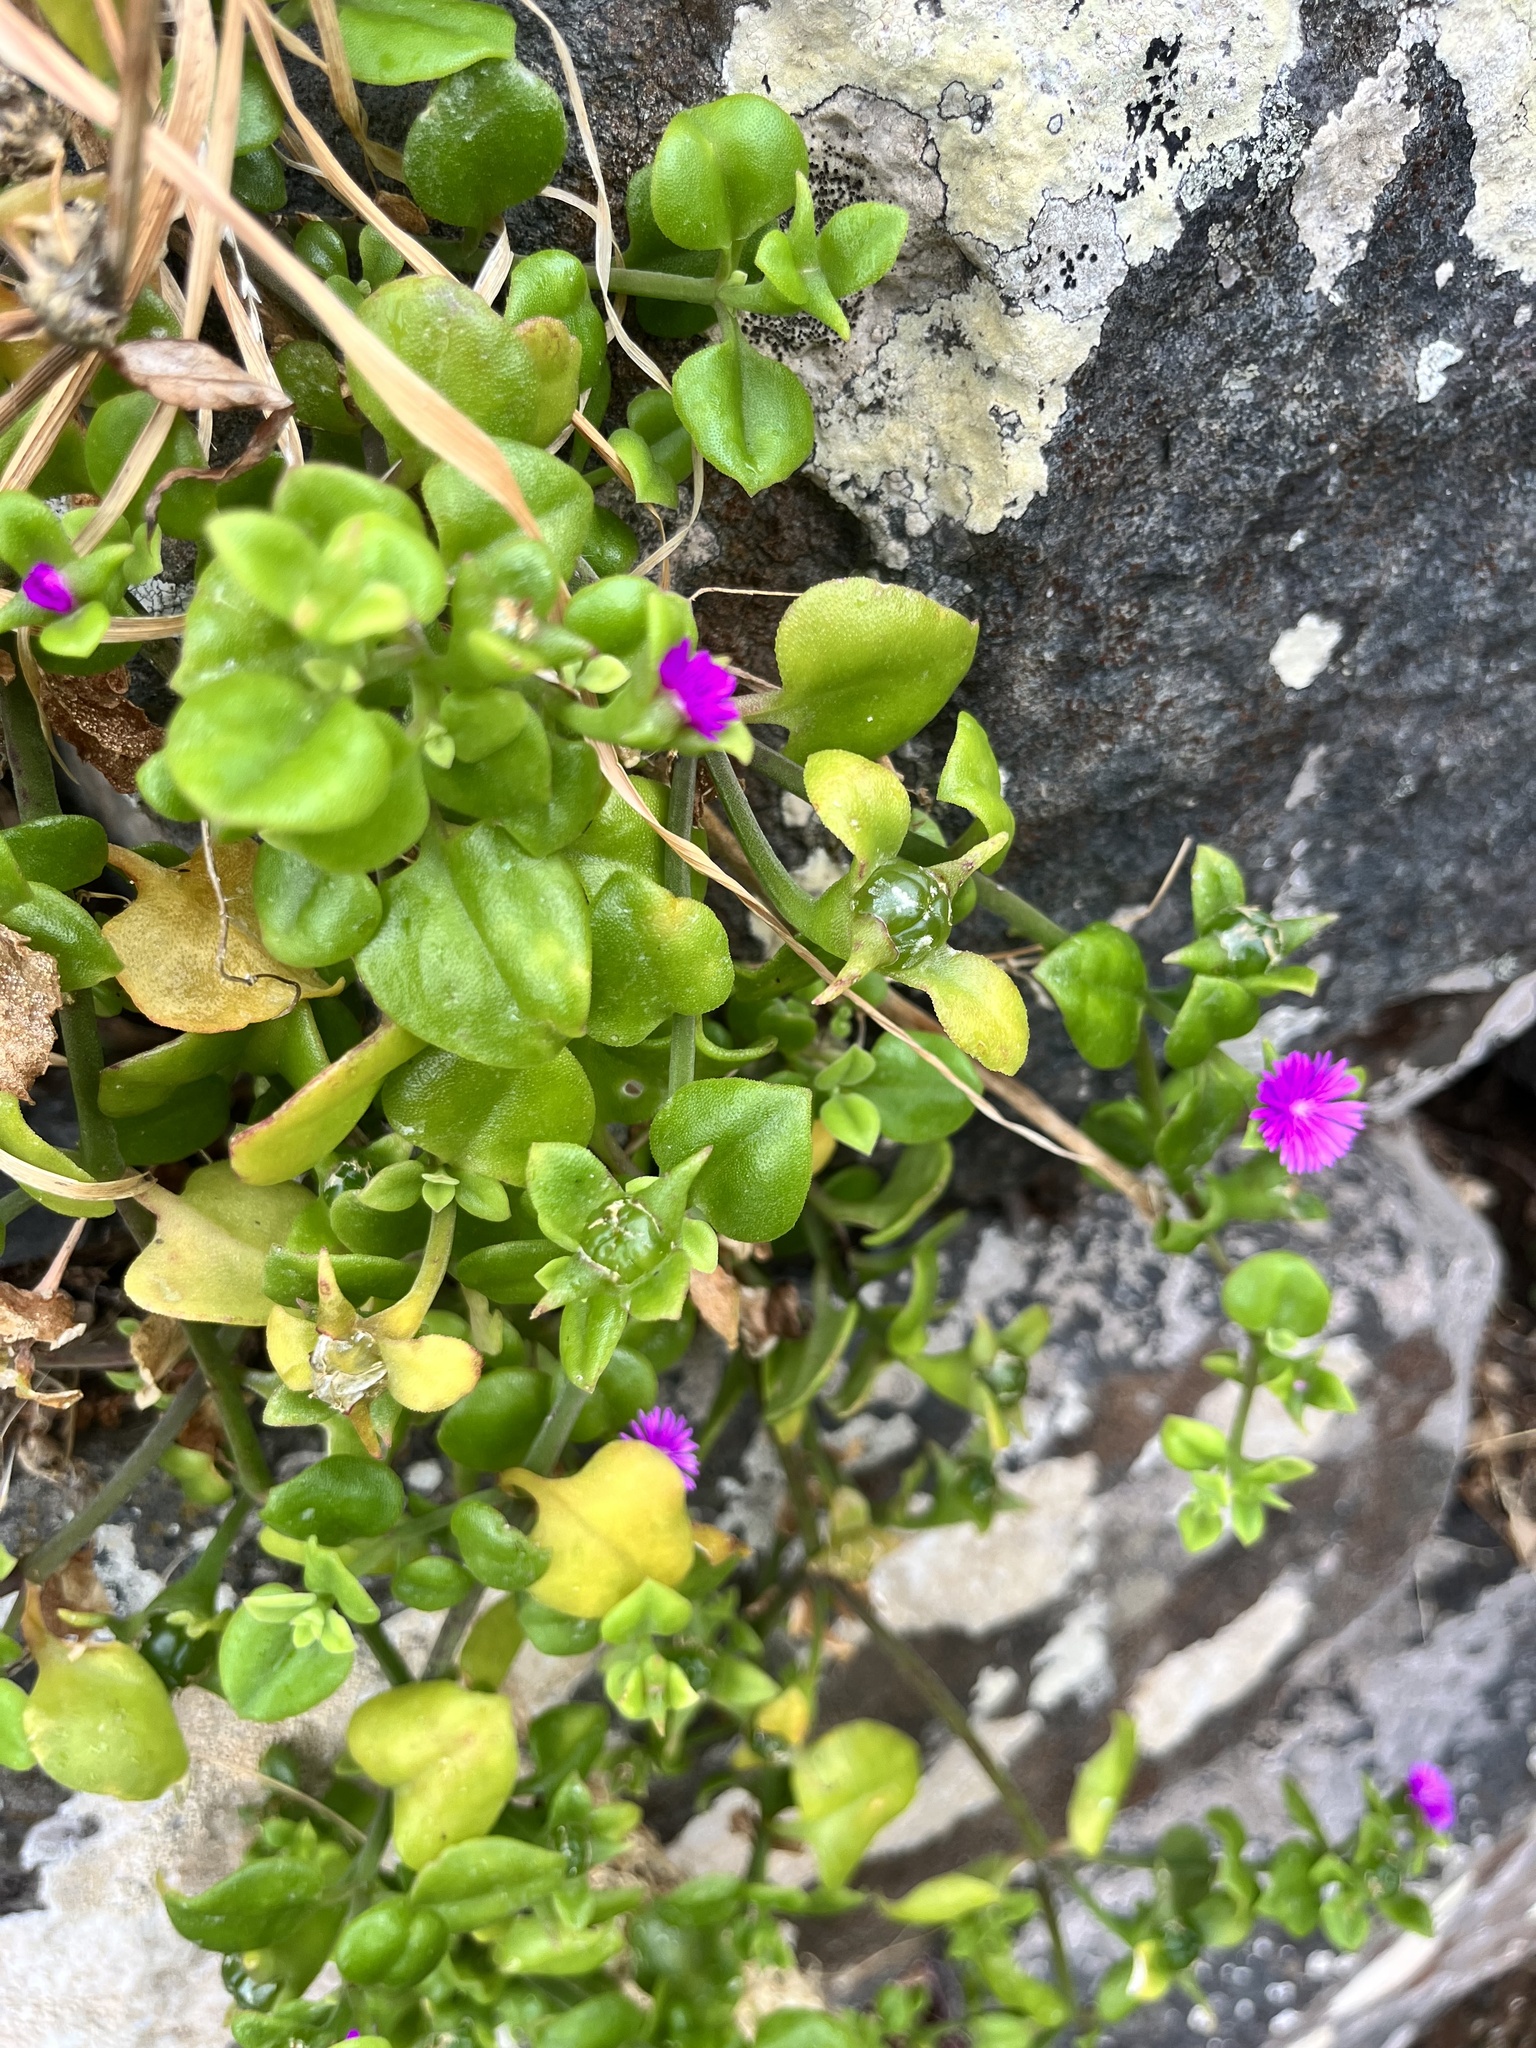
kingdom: Plantae
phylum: Tracheophyta
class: Magnoliopsida
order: Caryophyllales
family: Aizoaceae
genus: Mesembryanthemum
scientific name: Mesembryanthemum cordifolium
